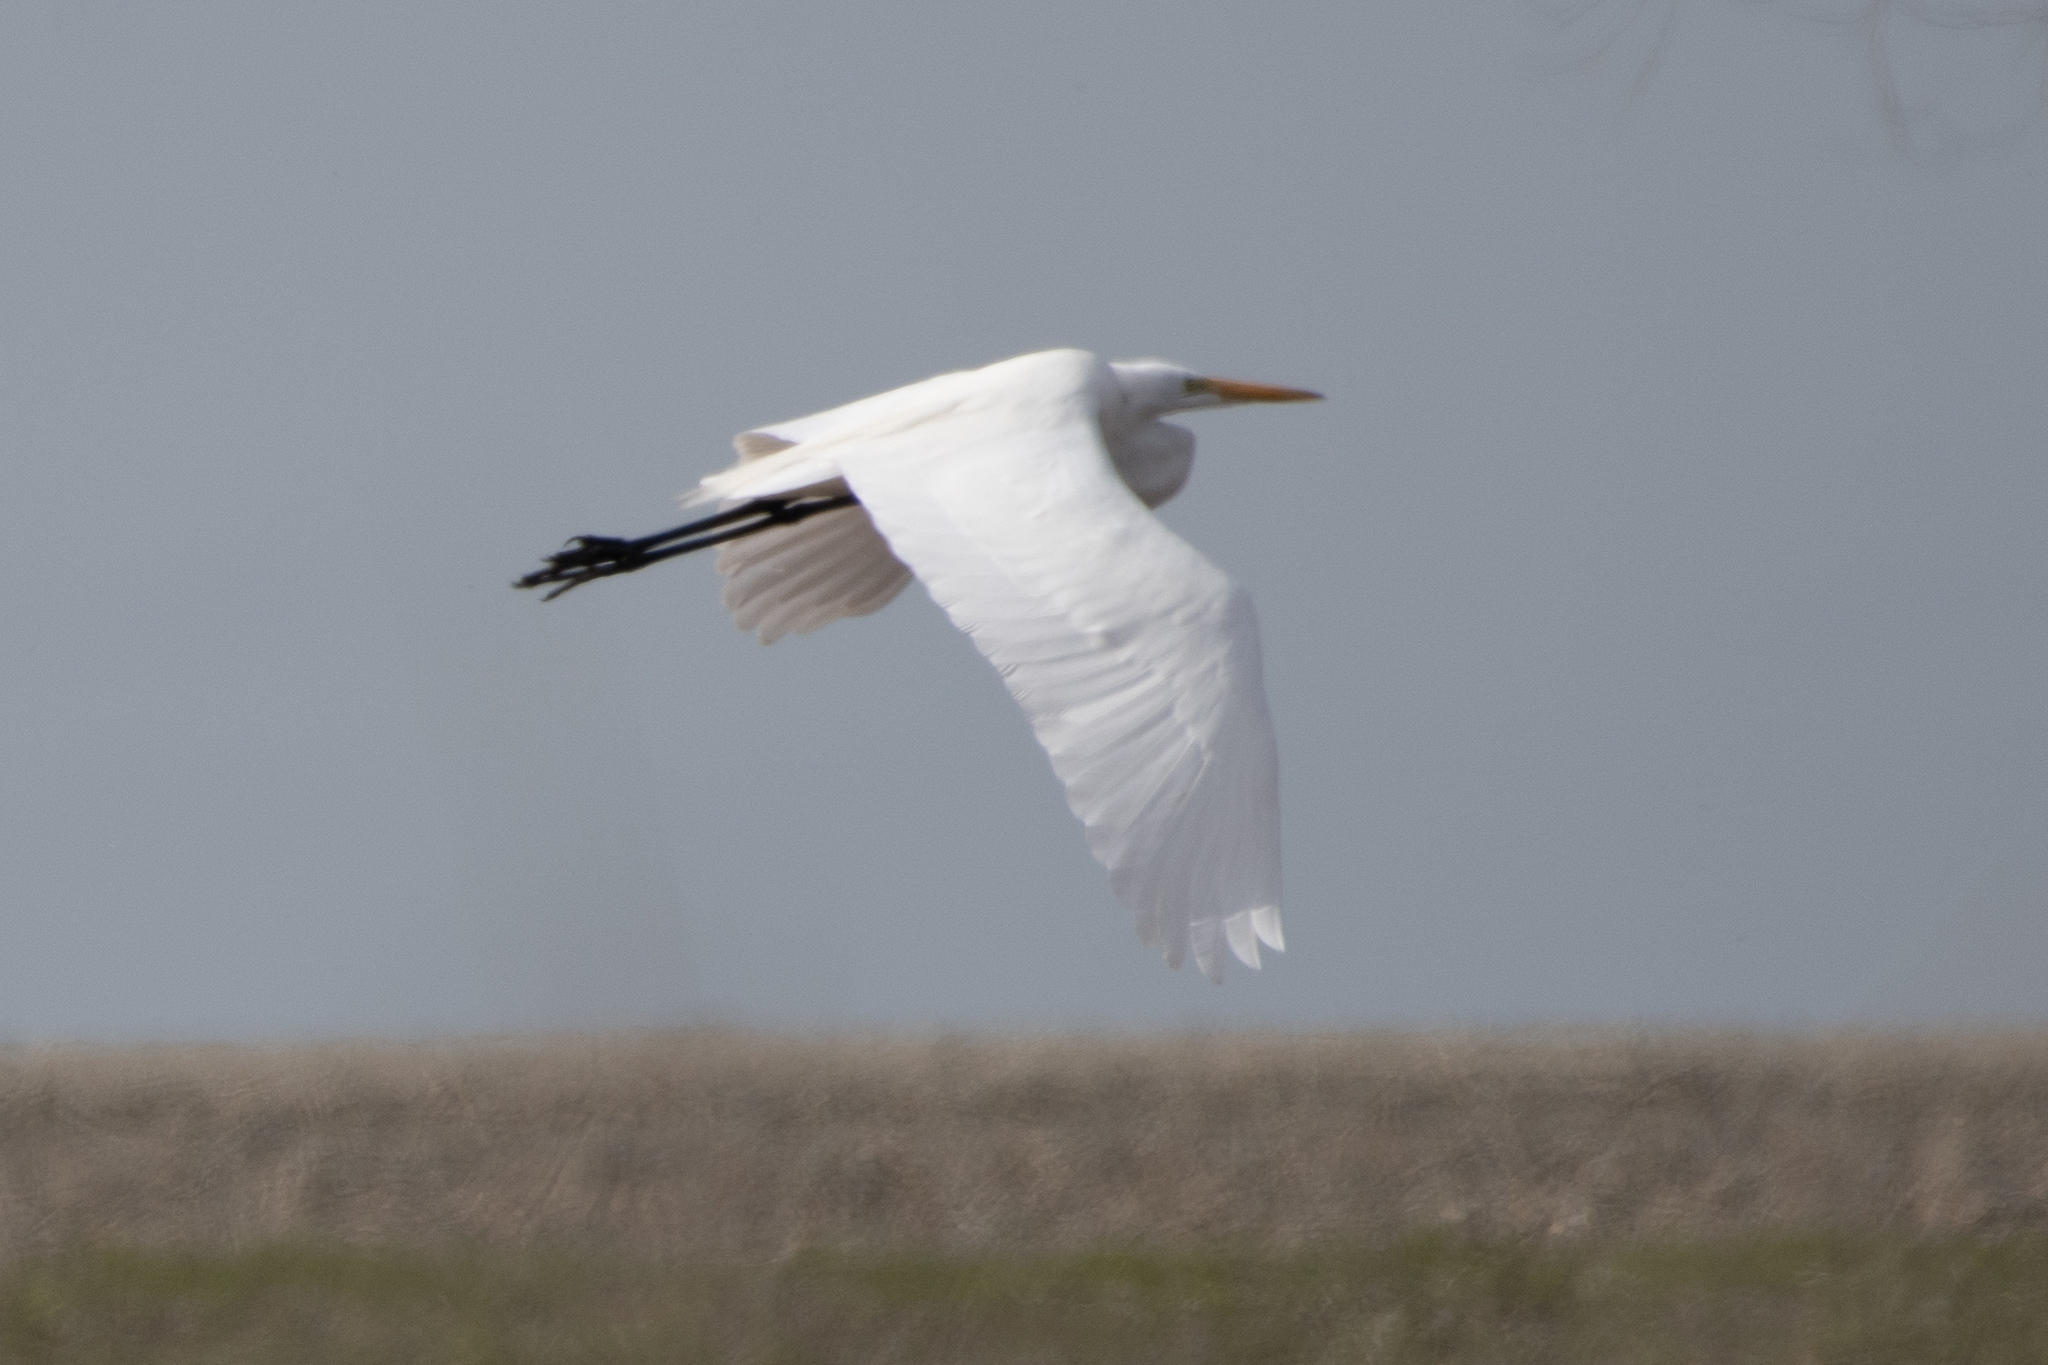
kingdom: Animalia
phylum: Chordata
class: Aves
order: Pelecaniformes
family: Ardeidae
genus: Ardea
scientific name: Ardea alba
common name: Great egret
